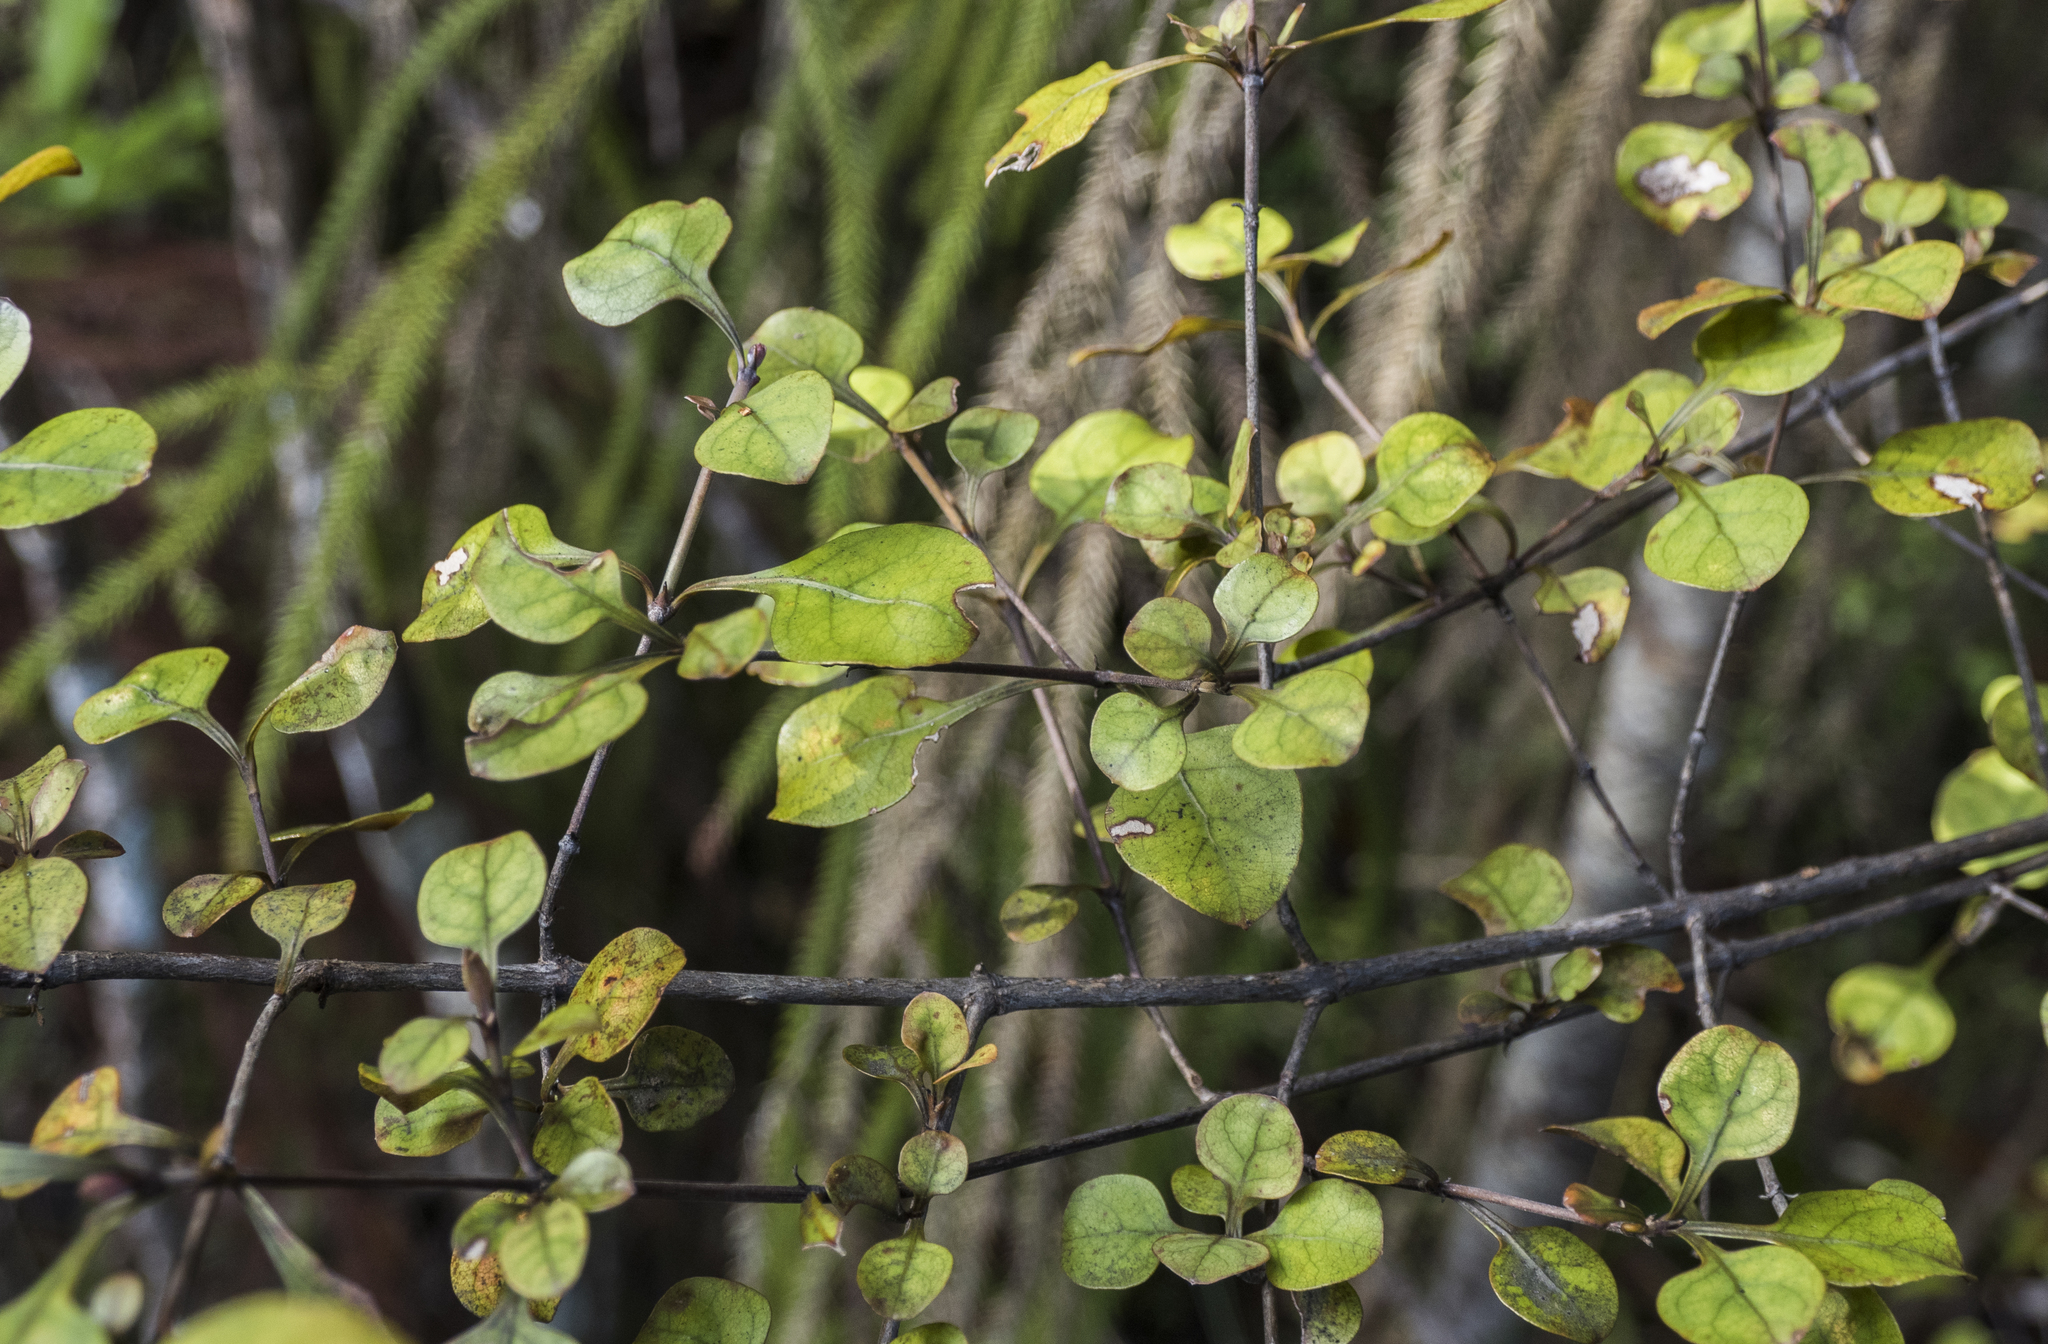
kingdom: Plantae
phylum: Tracheophyta
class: Magnoliopsida
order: Gentianales
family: Rubiaceae
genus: Coprosma
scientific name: Coprosma arborea
